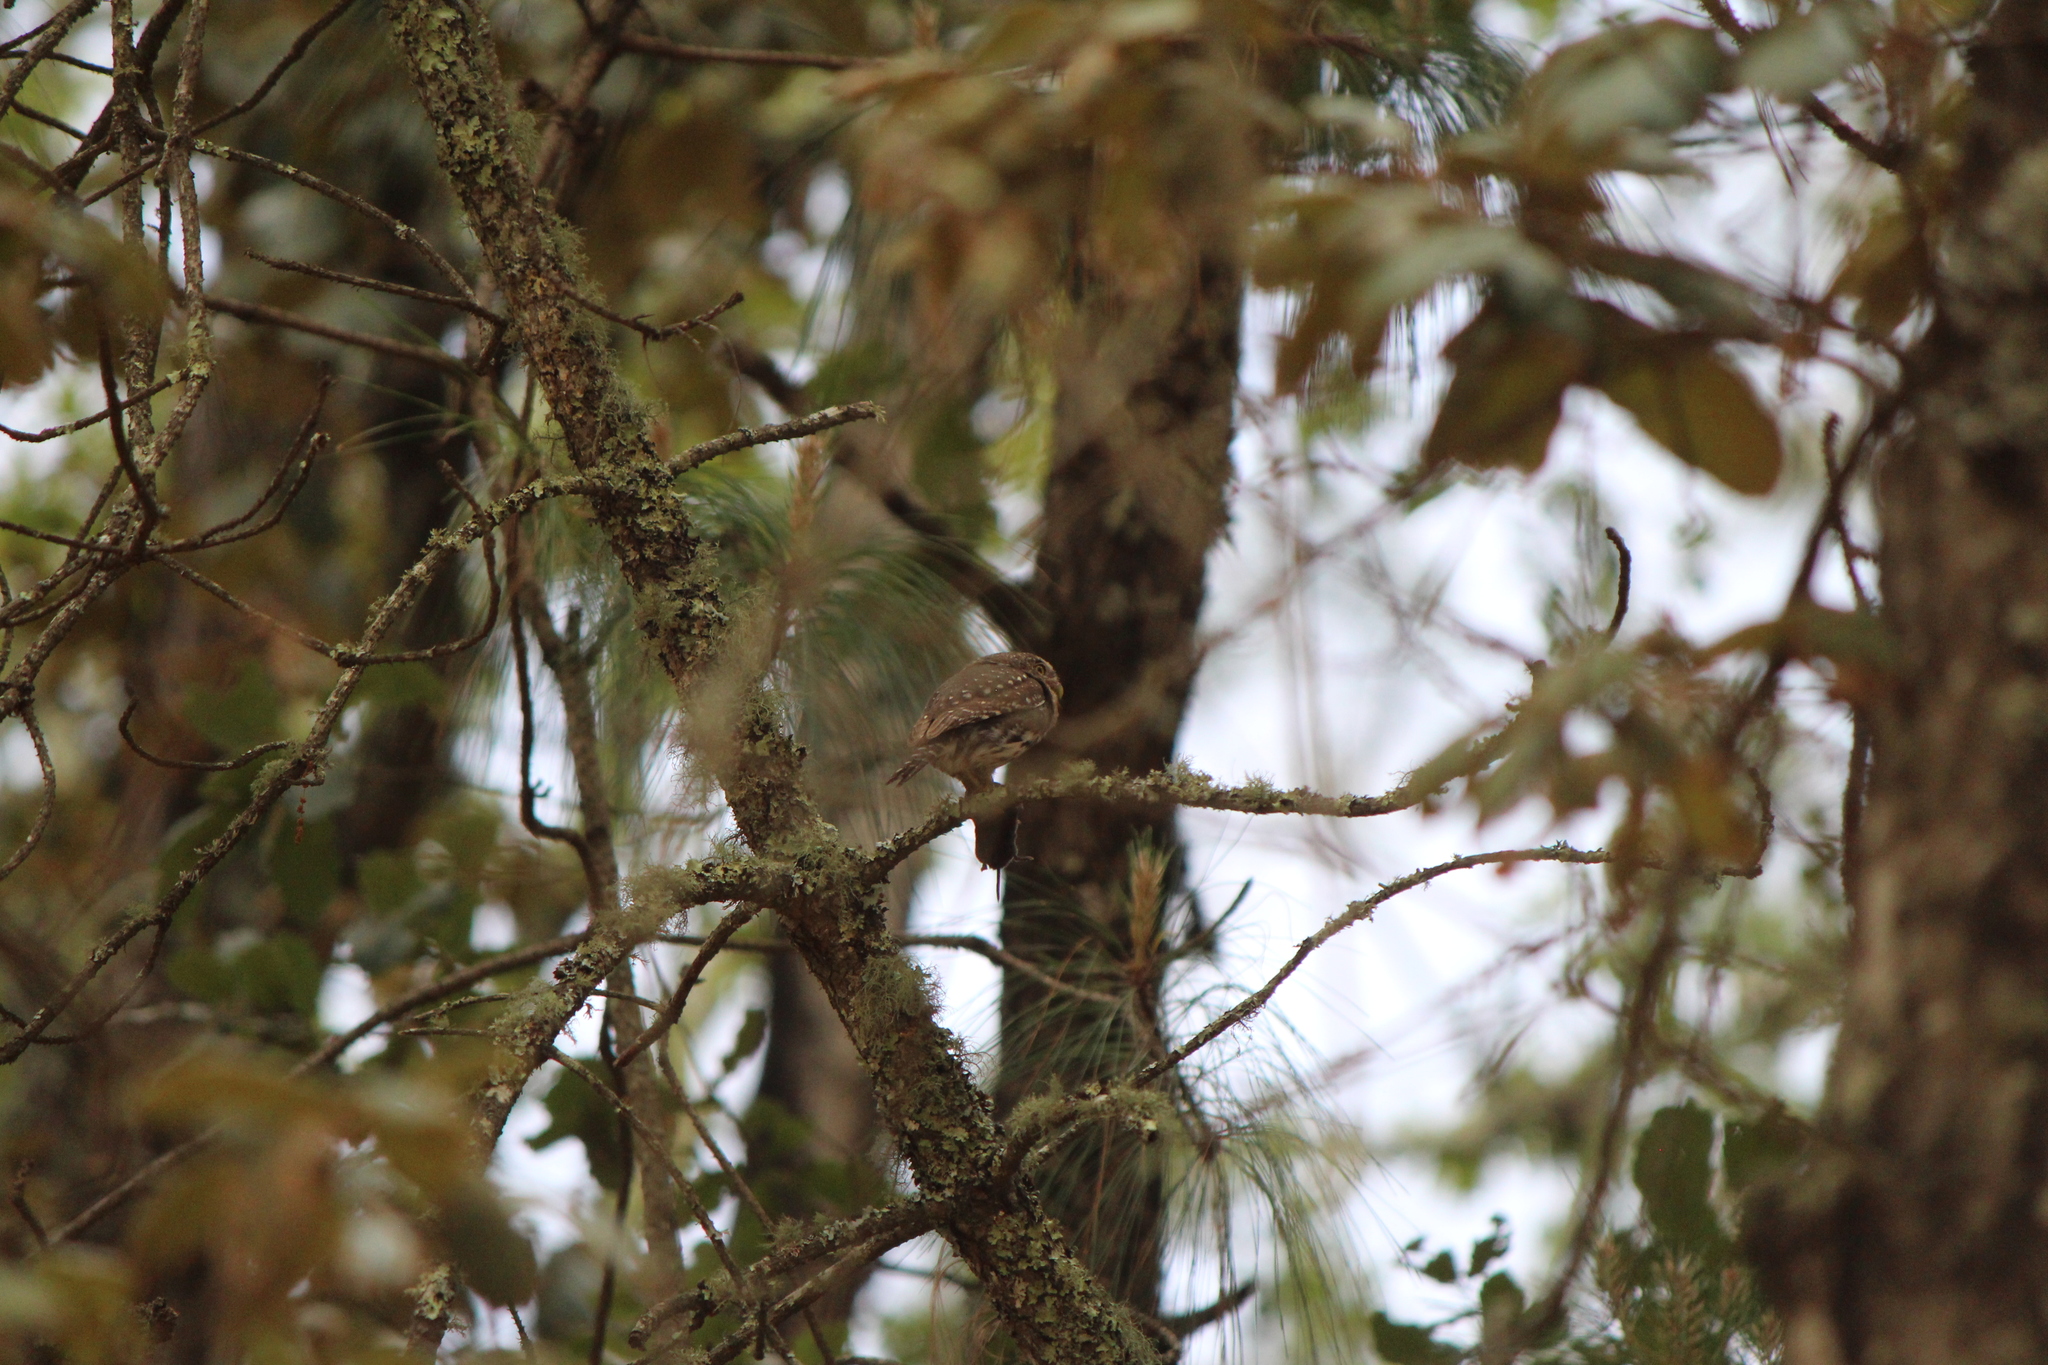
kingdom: Animalia
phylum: Chordata
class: Aves
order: Strigiformes
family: Strigidae
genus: Glaucidium
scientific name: Glaucidium gnoma
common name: Northern pygmy-owl
